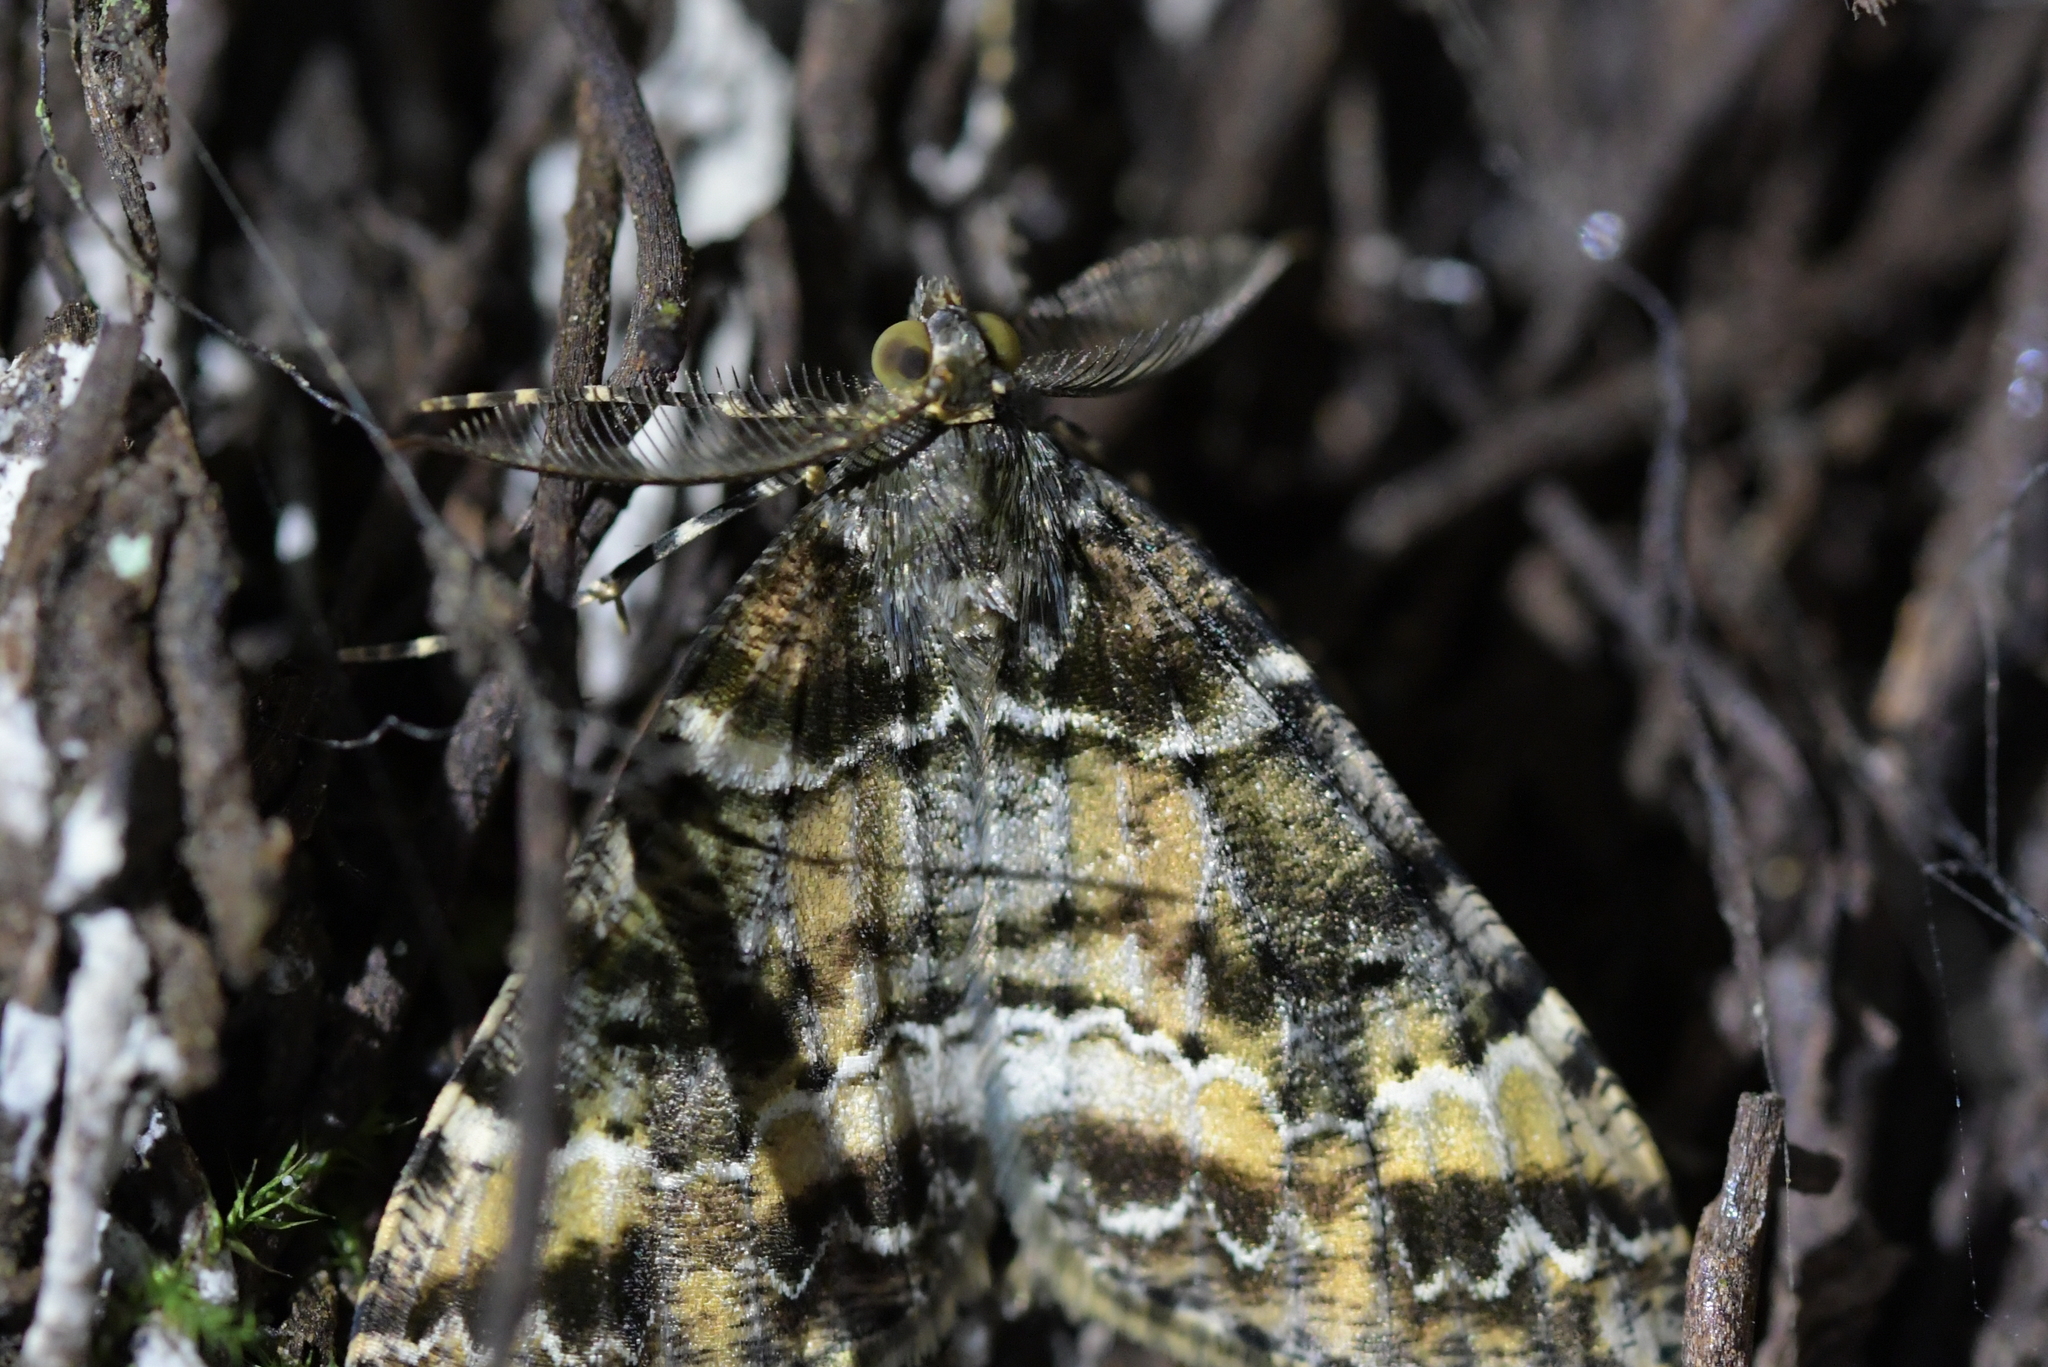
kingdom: Animalia
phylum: Arthropoda
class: Insecta
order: Lepidoptera
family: Geometridae
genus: Pseudocoremia
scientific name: Pseudocoremia productata
